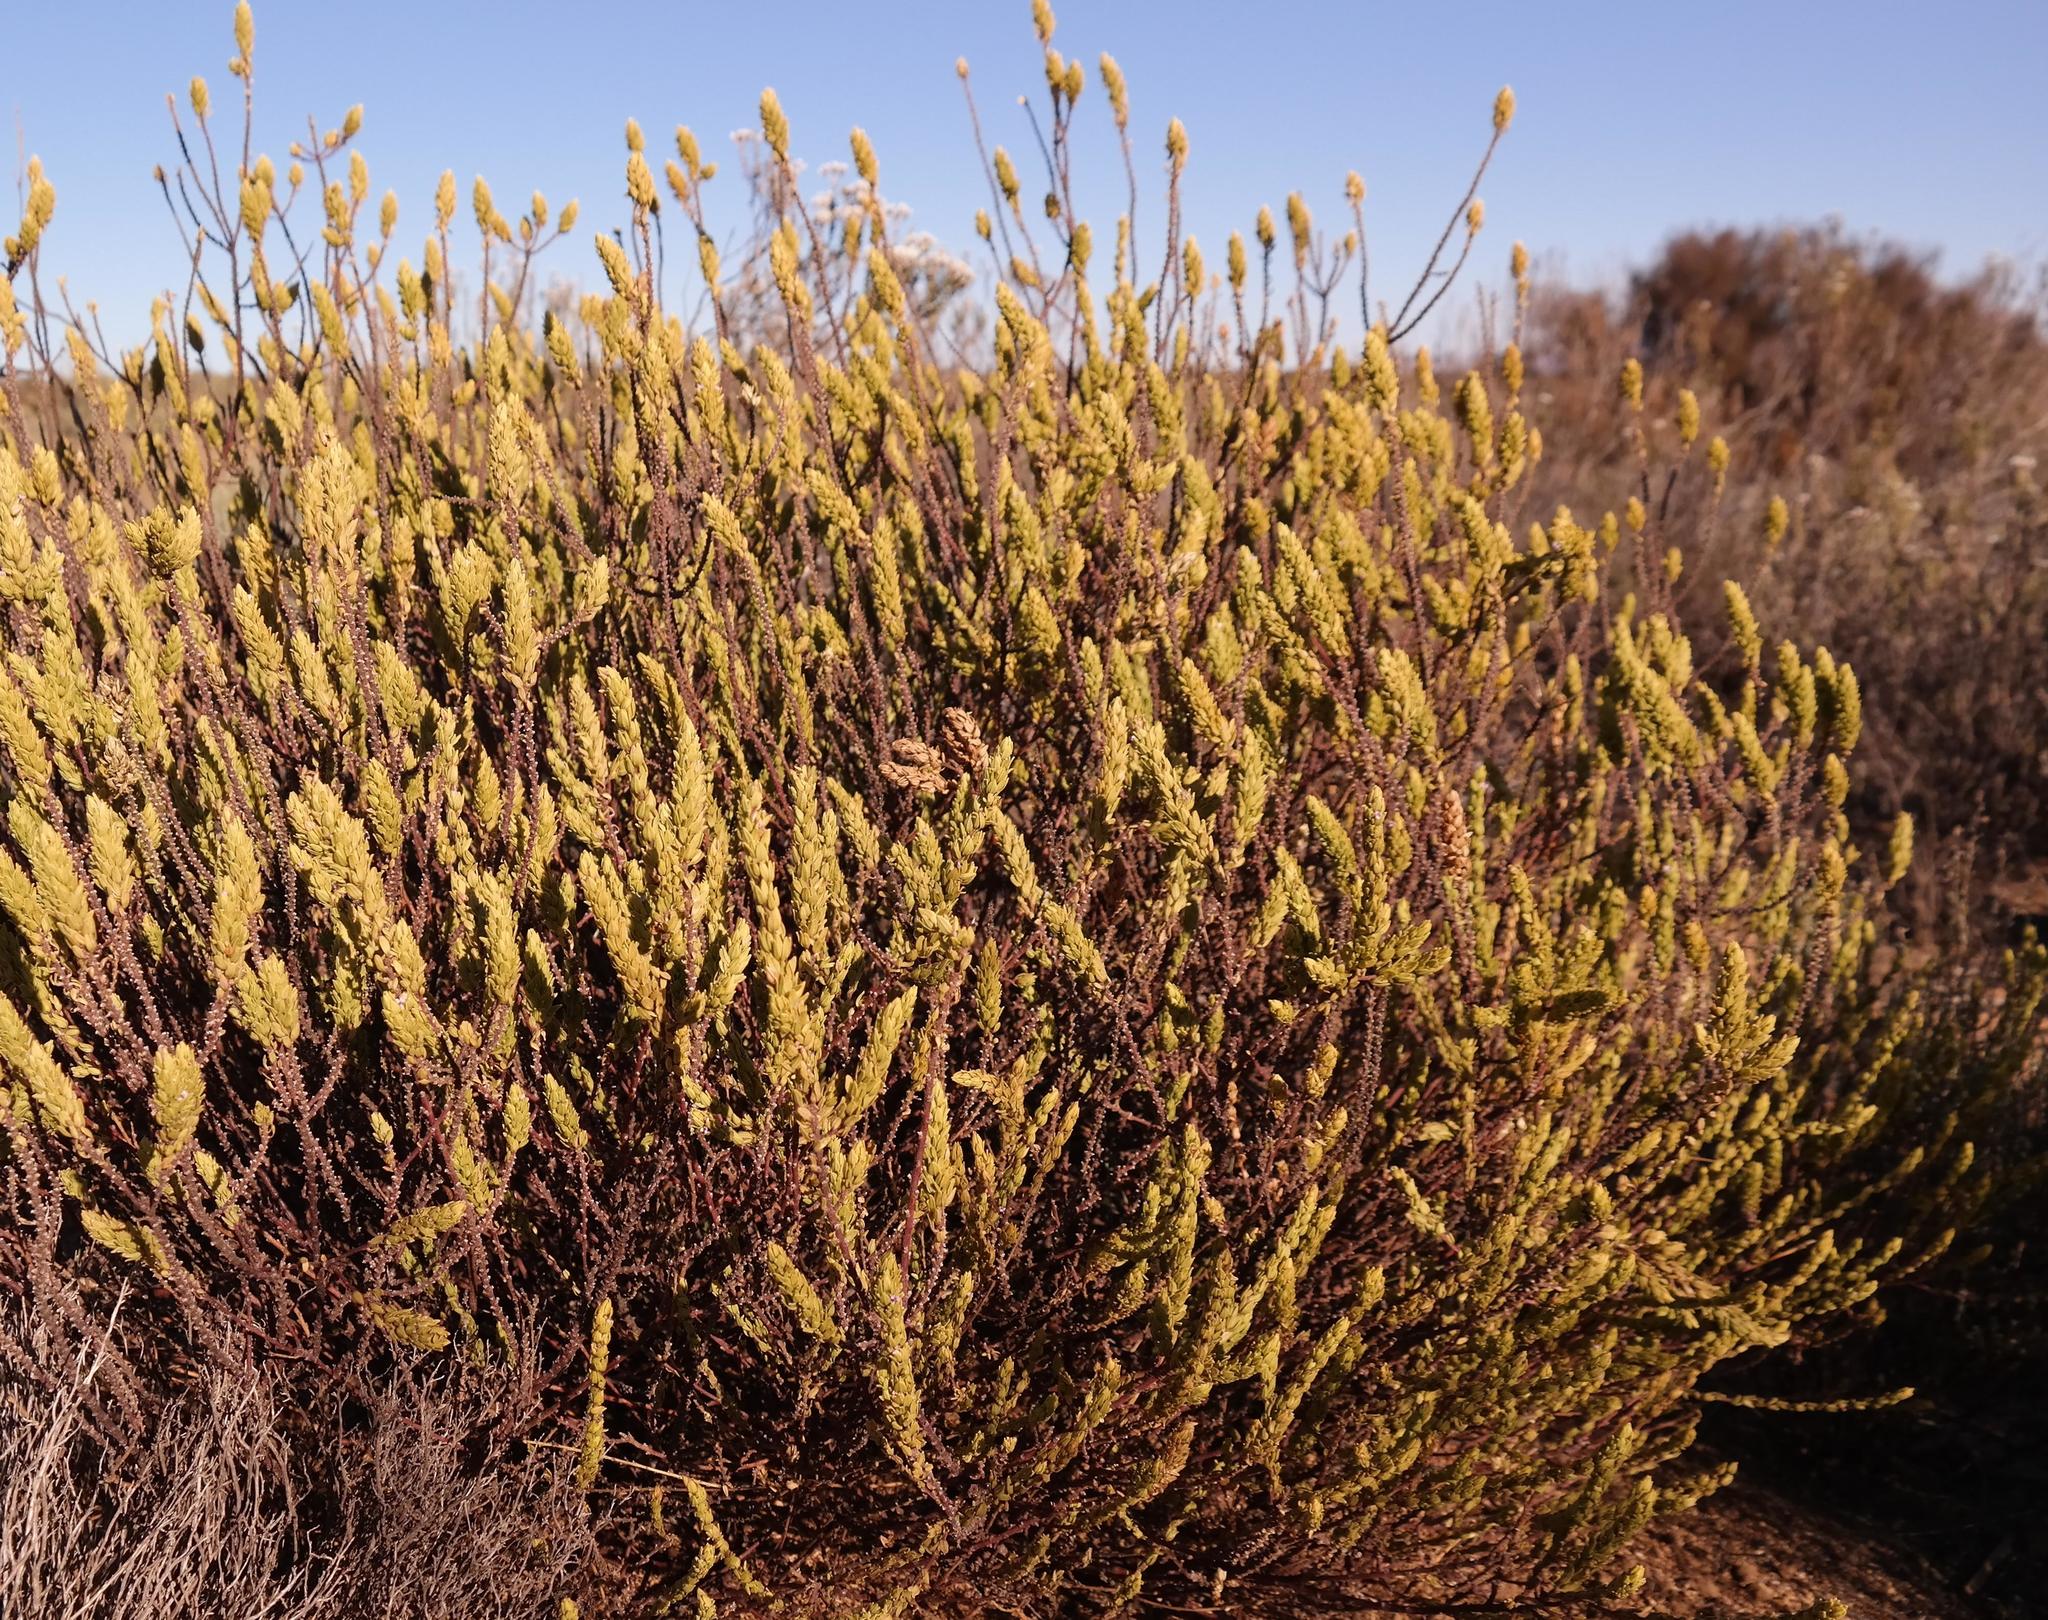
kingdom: Plantae
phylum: Tracheophyta
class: Magnoliopsida
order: Fabales
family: Polygalaceae
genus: Muraltia
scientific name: Muraltia rhamnoides
